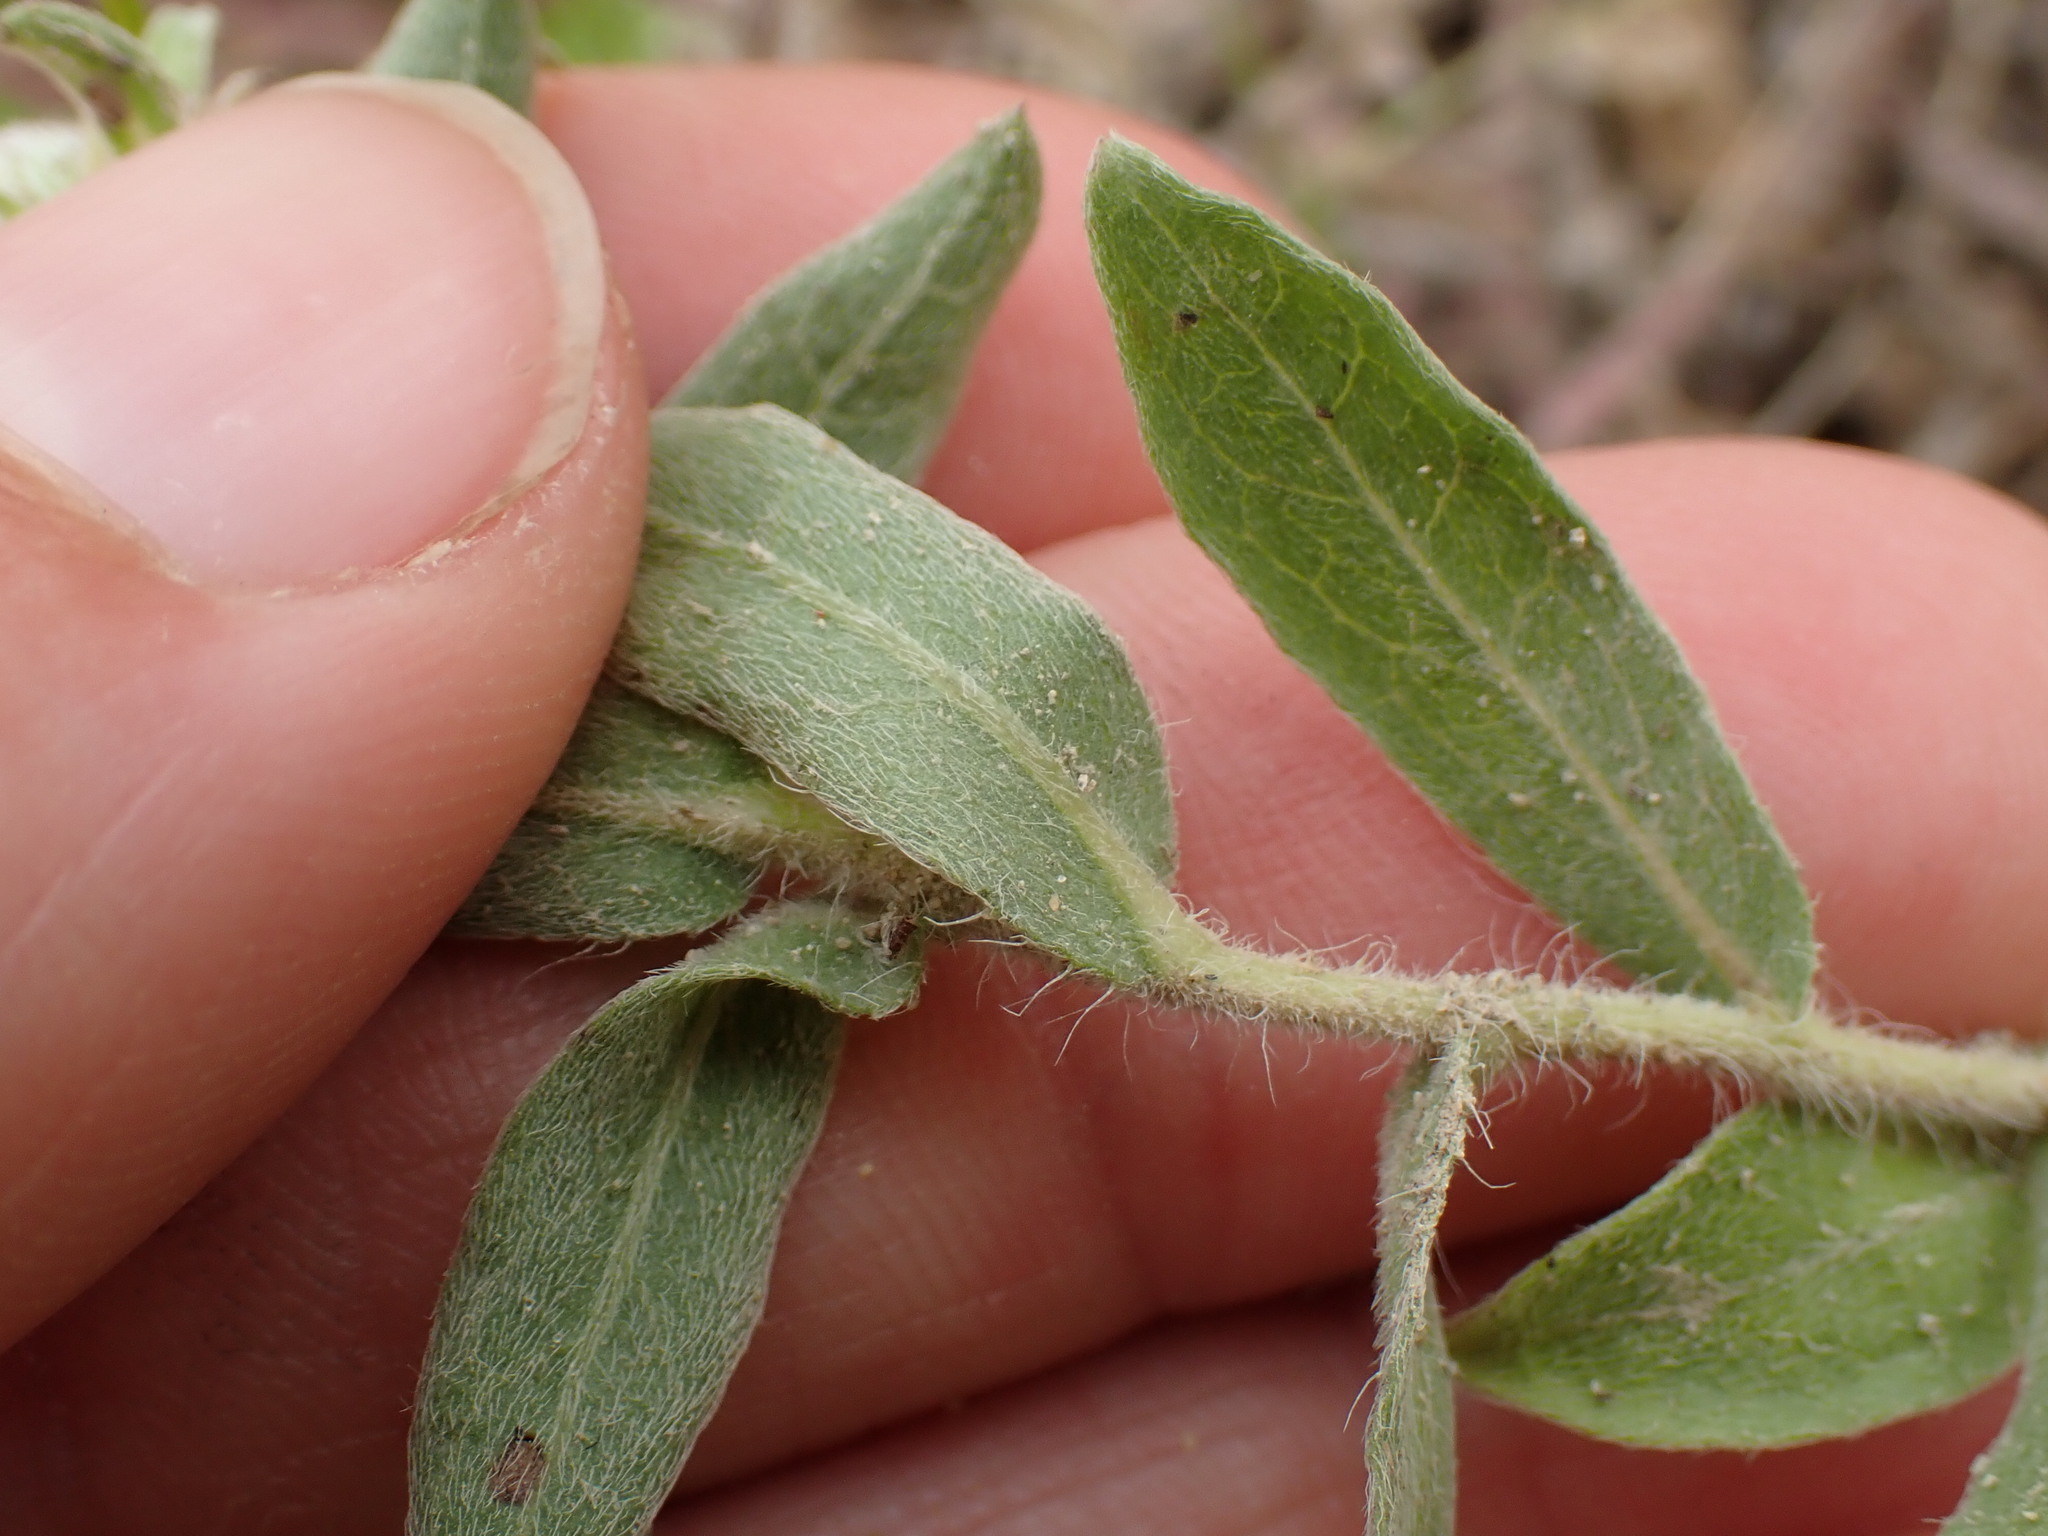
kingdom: Plantae
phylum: Tracheophyta
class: Magnoliopsida
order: Asterales
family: Asteraceae
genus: Heterotheca
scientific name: Heterotheca villosa
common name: Hairy false goldenaster
